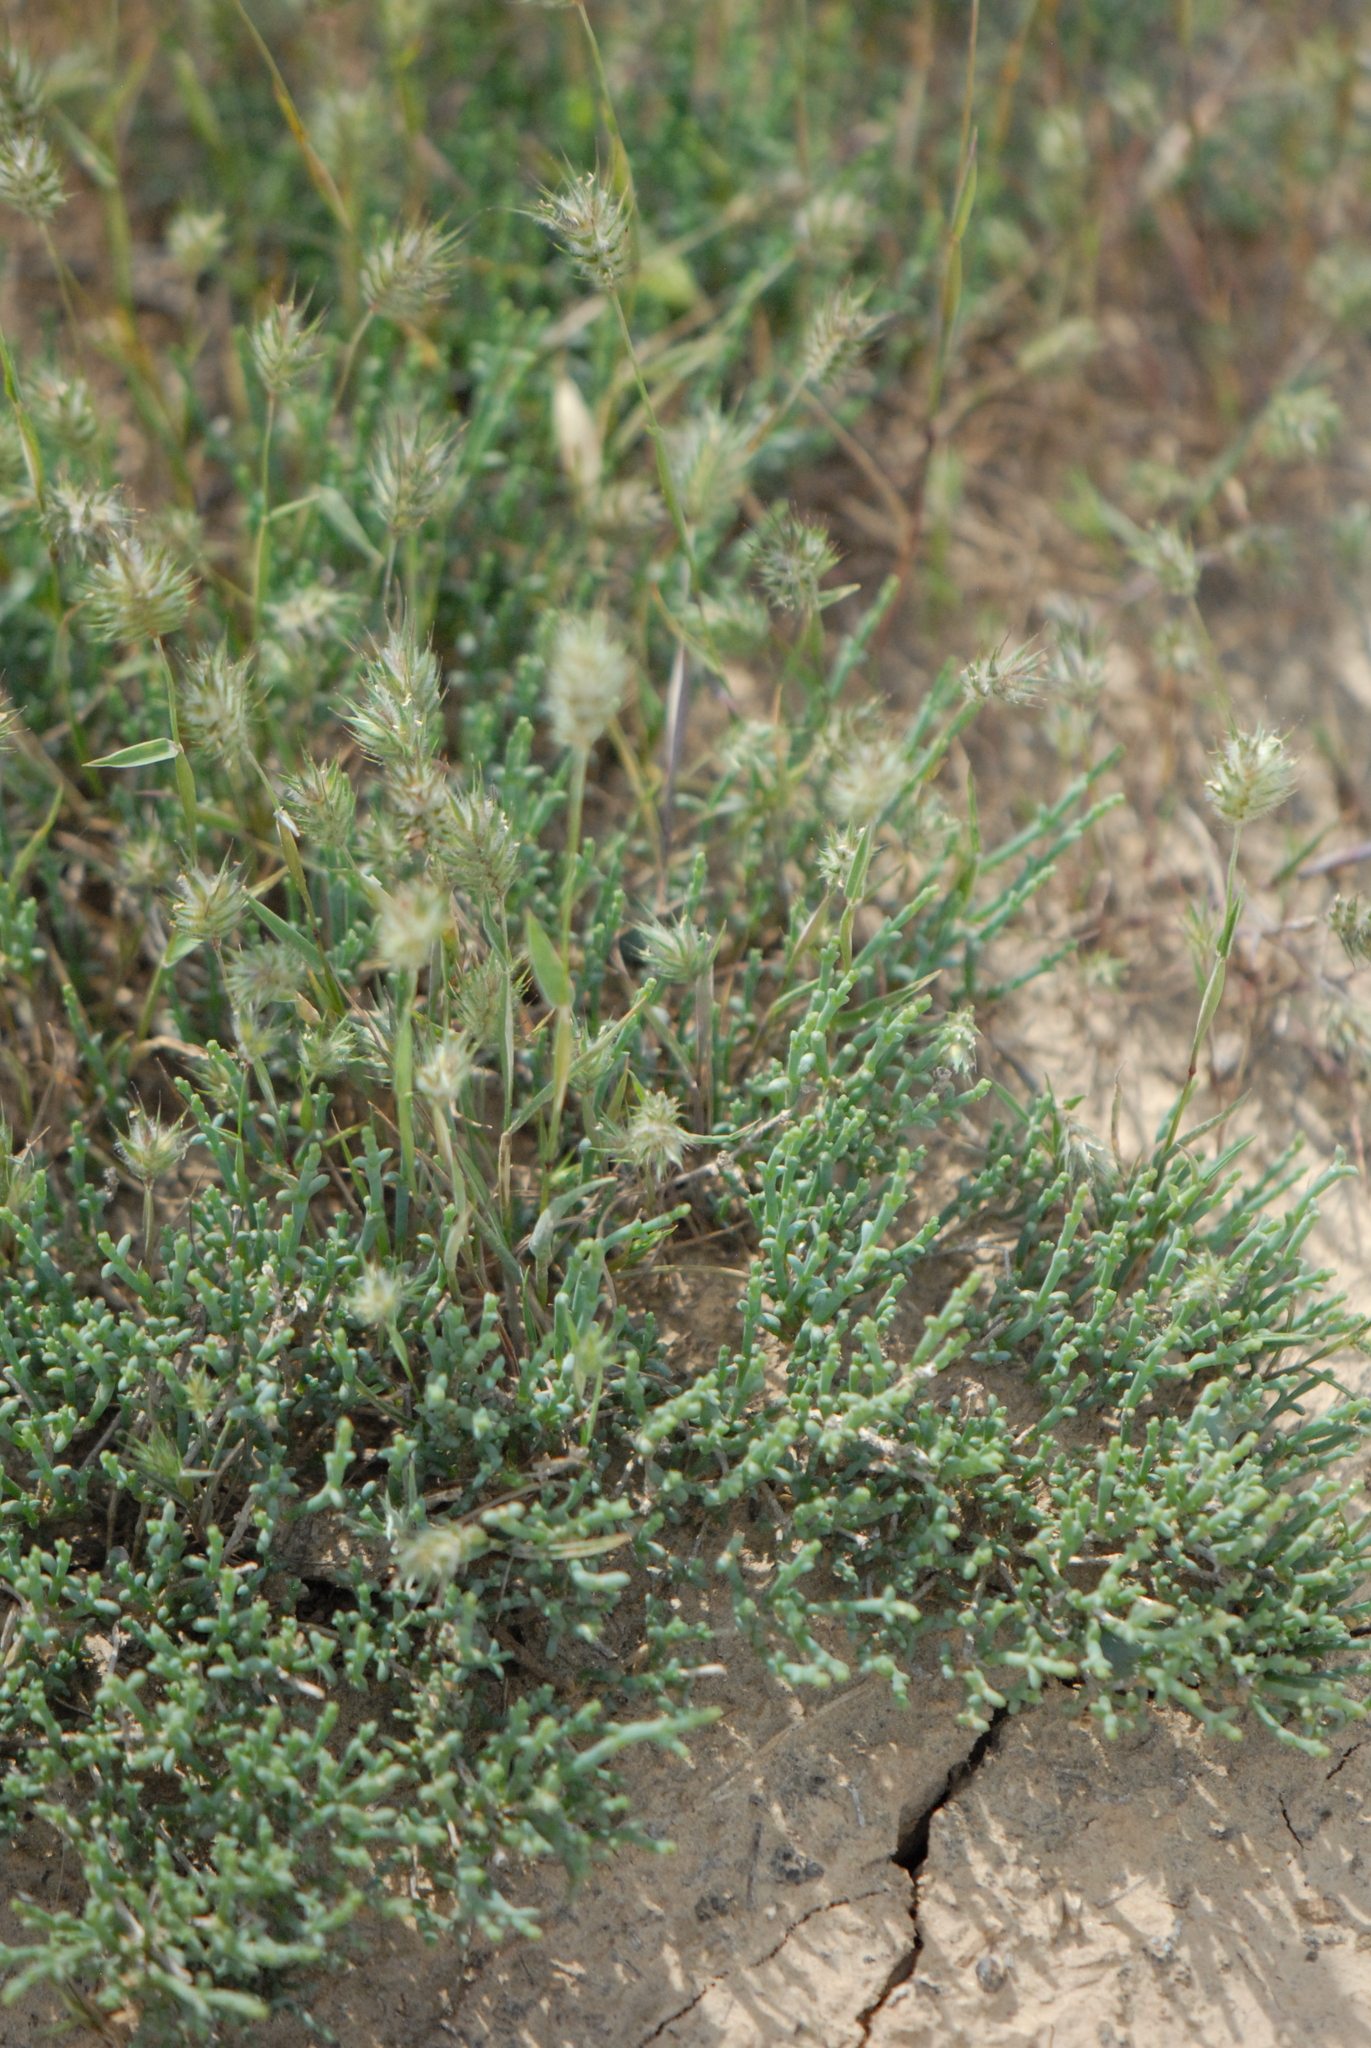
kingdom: Plantae
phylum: Tracheophyta
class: Liliopsida
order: Poales
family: Poaceae
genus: Eremopyrum
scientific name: Eremopyrum orientale
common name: Oriental false wheatgrass
